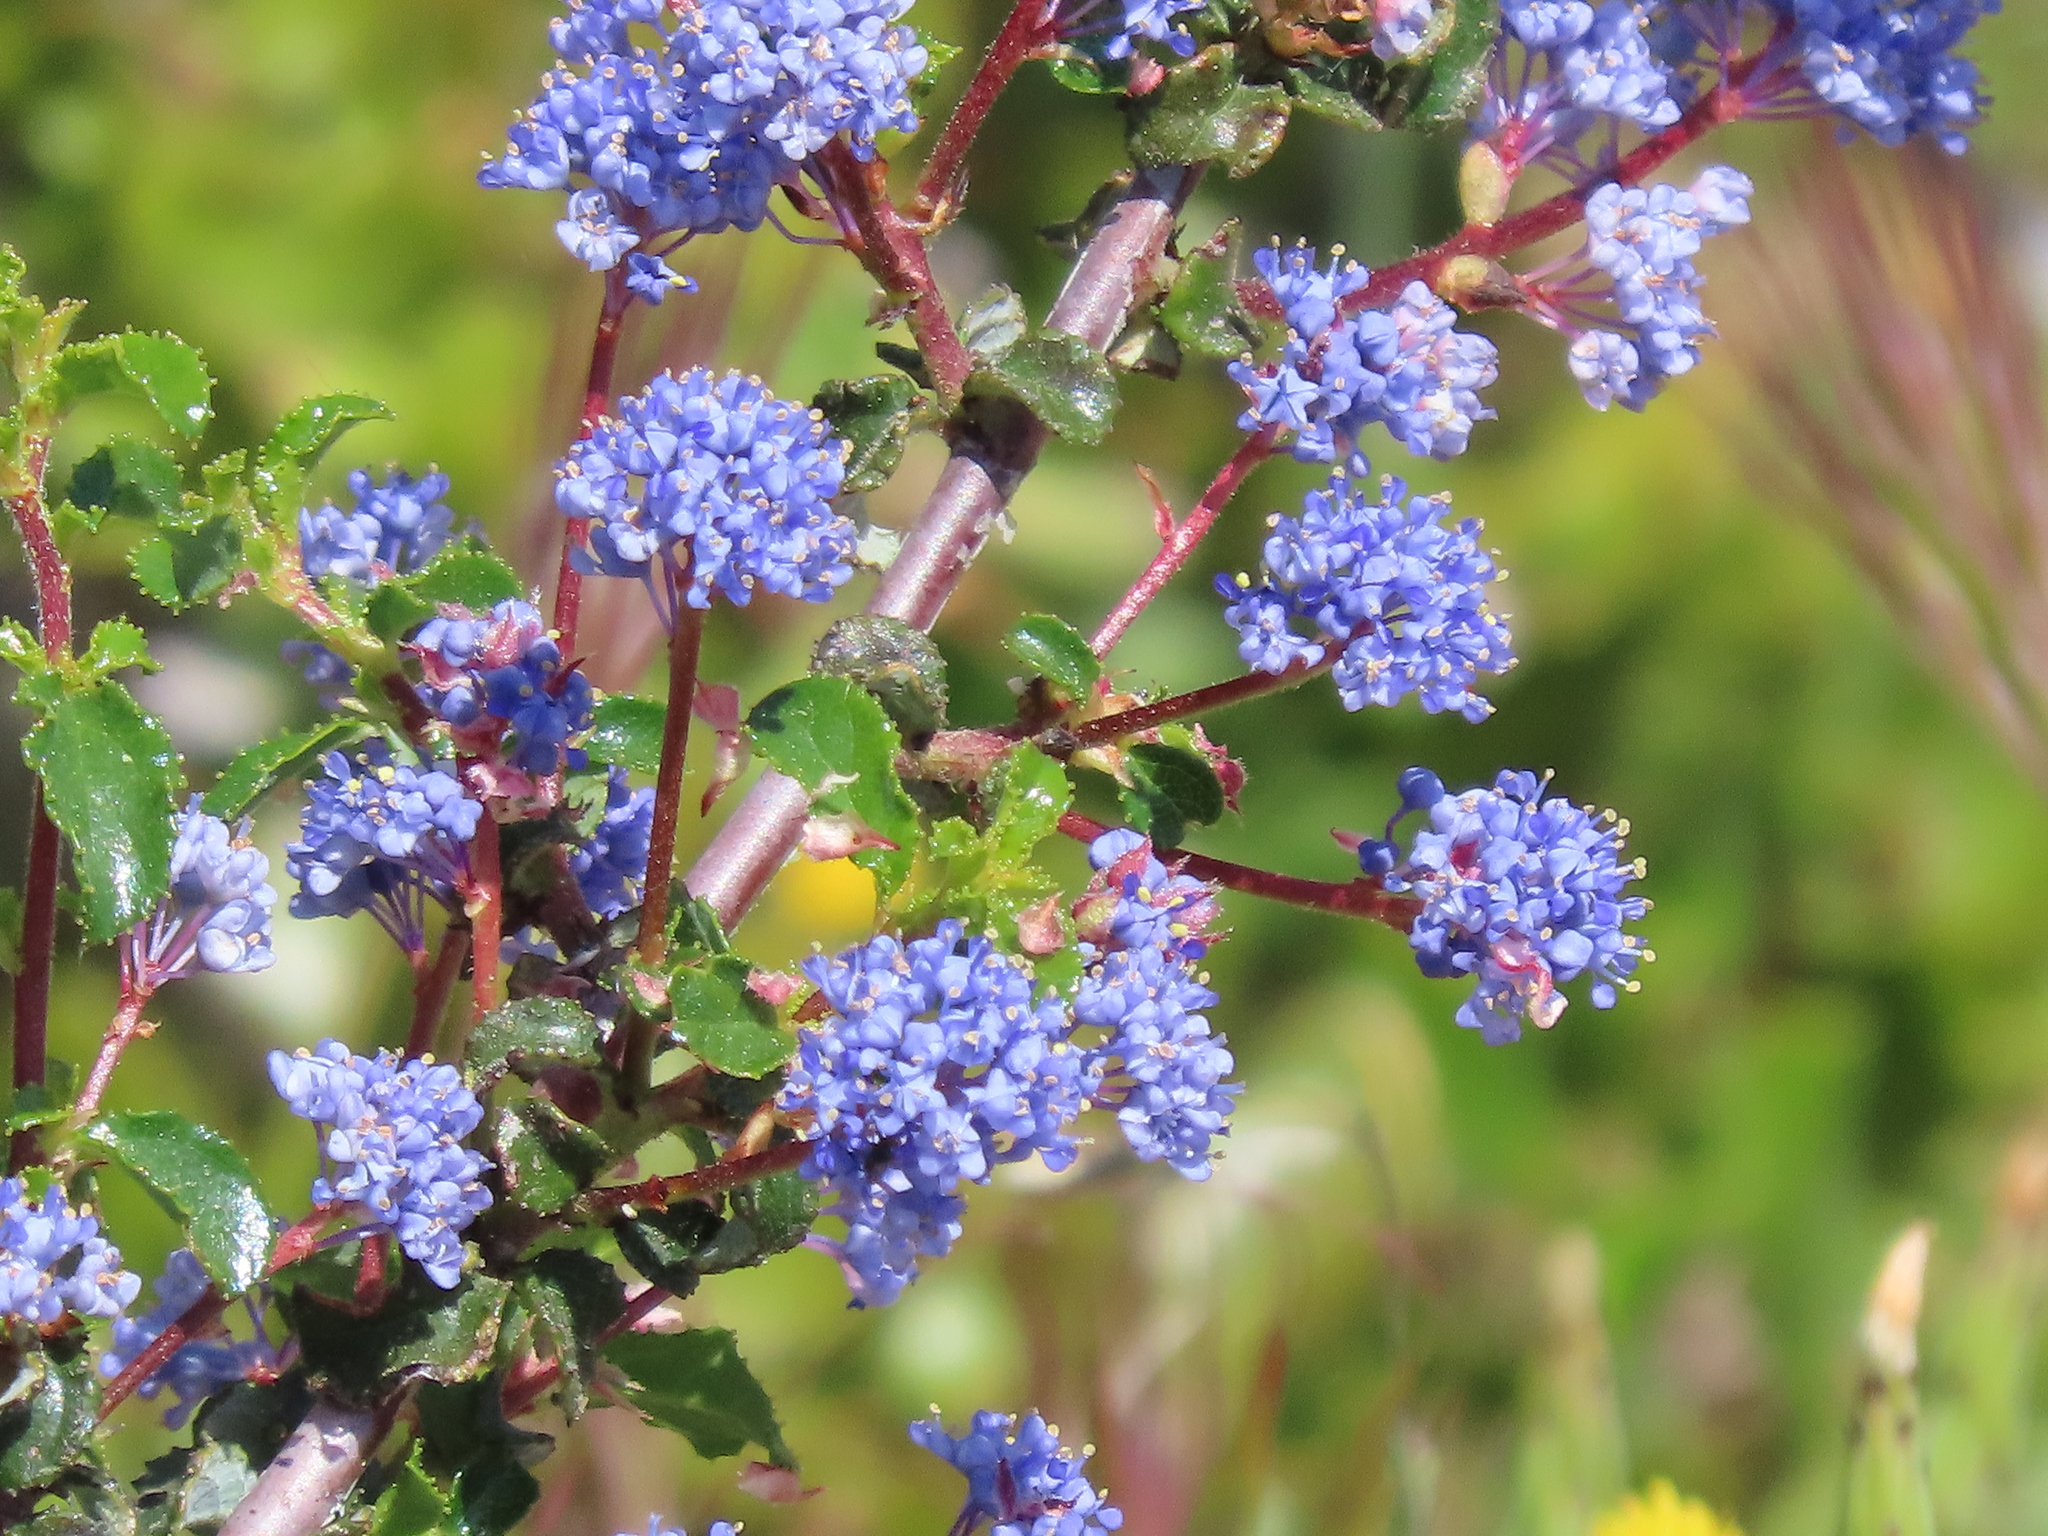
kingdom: Plantae
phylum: Tracheophyta
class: Magnoliopsida
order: Rosales
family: Rhamnaceae
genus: Ceanothus
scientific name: Ceanothus foliosus
